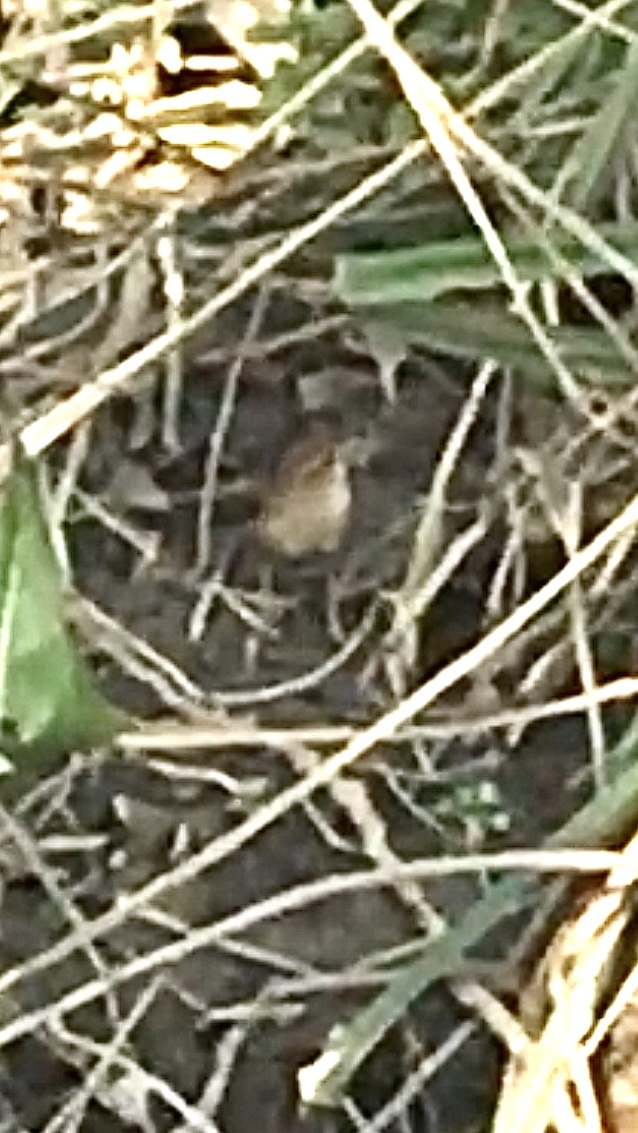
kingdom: Animalia
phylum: Chordata
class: Aves
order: Passeriformes
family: Troglodytidae
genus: Troglodytes
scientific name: Troglodytes troglodytes
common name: Eurasian wren
